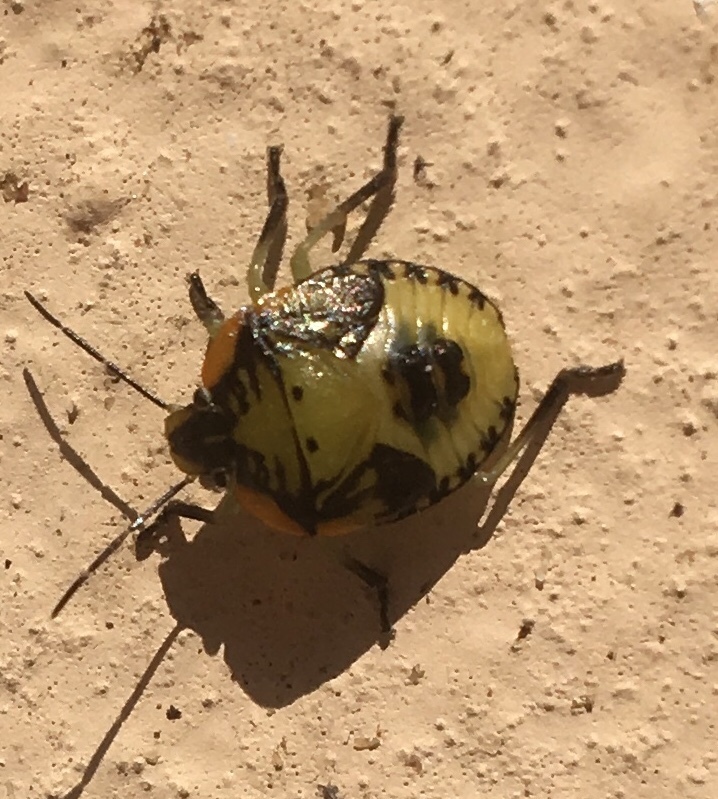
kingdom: Animalia
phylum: Arthropoda
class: Insecta
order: Hemiptera
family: Pentatomidae
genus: Chinavia
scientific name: Chinavia hilaris
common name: Green stink bug
